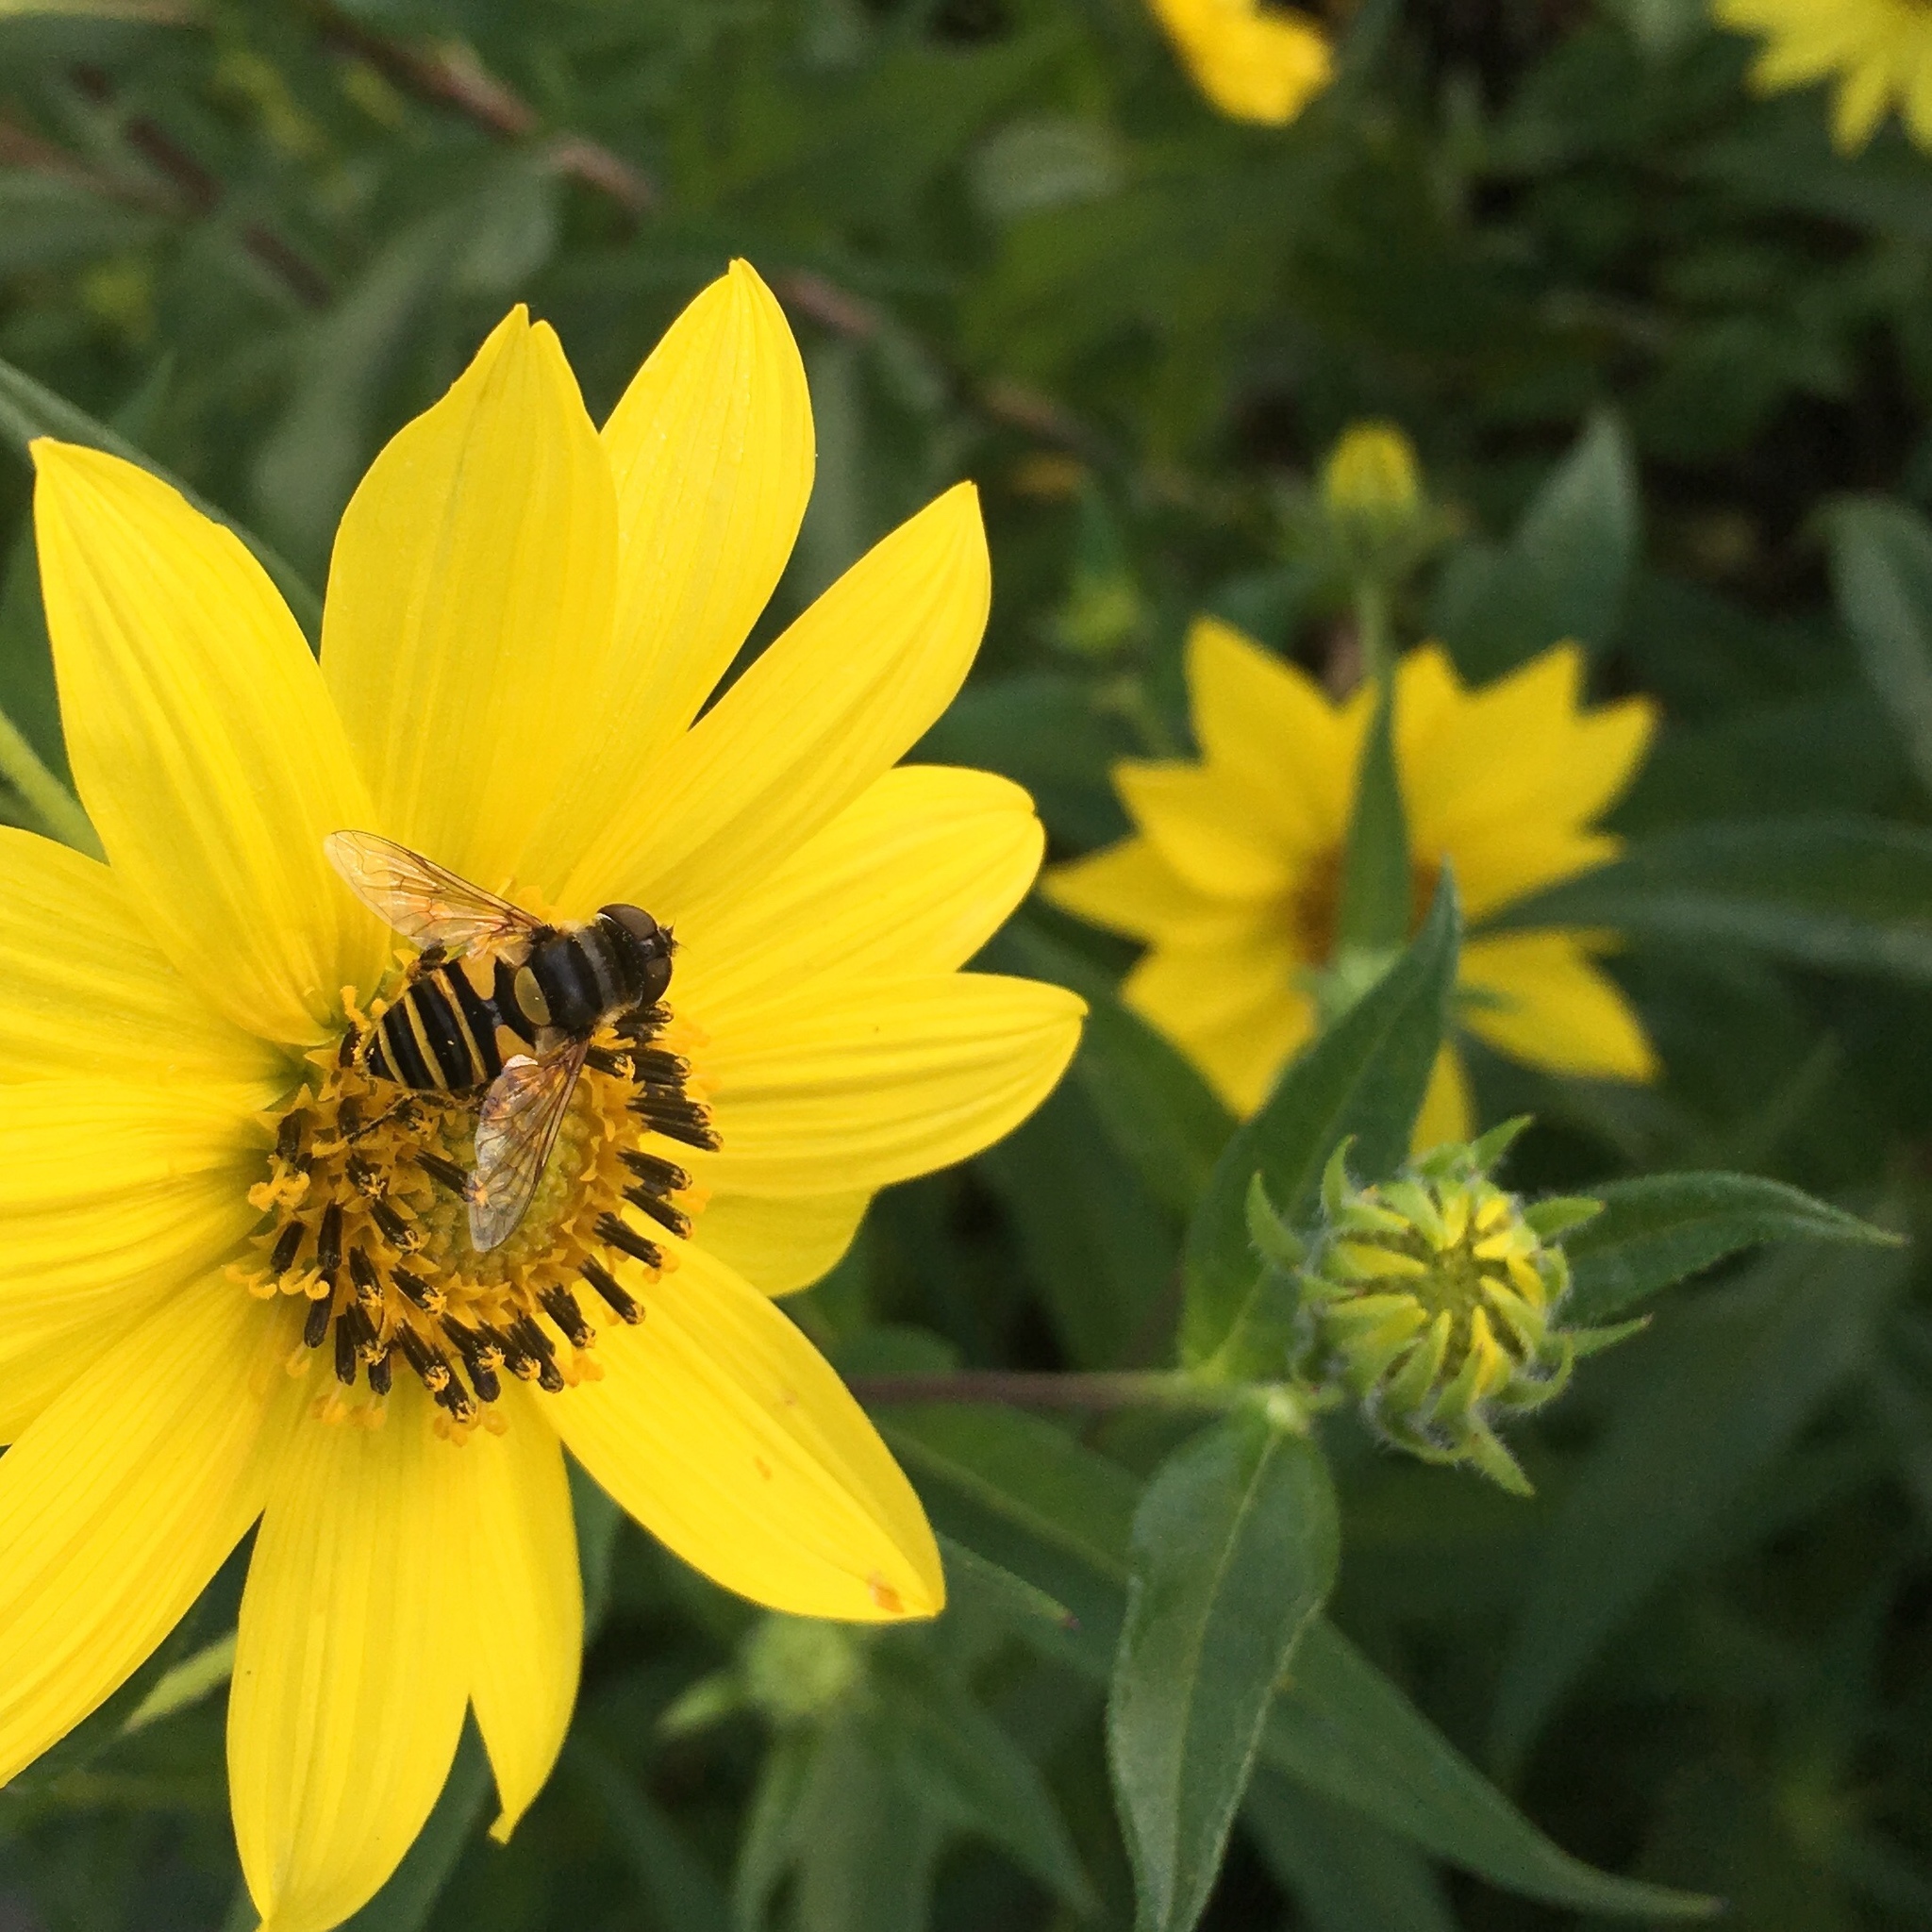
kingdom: Plantae
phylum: Tracheophyta
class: Magnoliopsida
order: Asterales
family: Asteraceae
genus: Rudbeckia
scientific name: Rudbeckia hirta
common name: Black-eyed-susan
